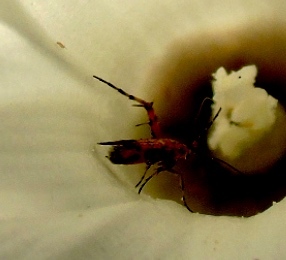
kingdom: Animalia
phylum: Arthropoda
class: Insecta
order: Lepidoptera
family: Heliodinidae
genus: Heliodines
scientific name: Heliodines
